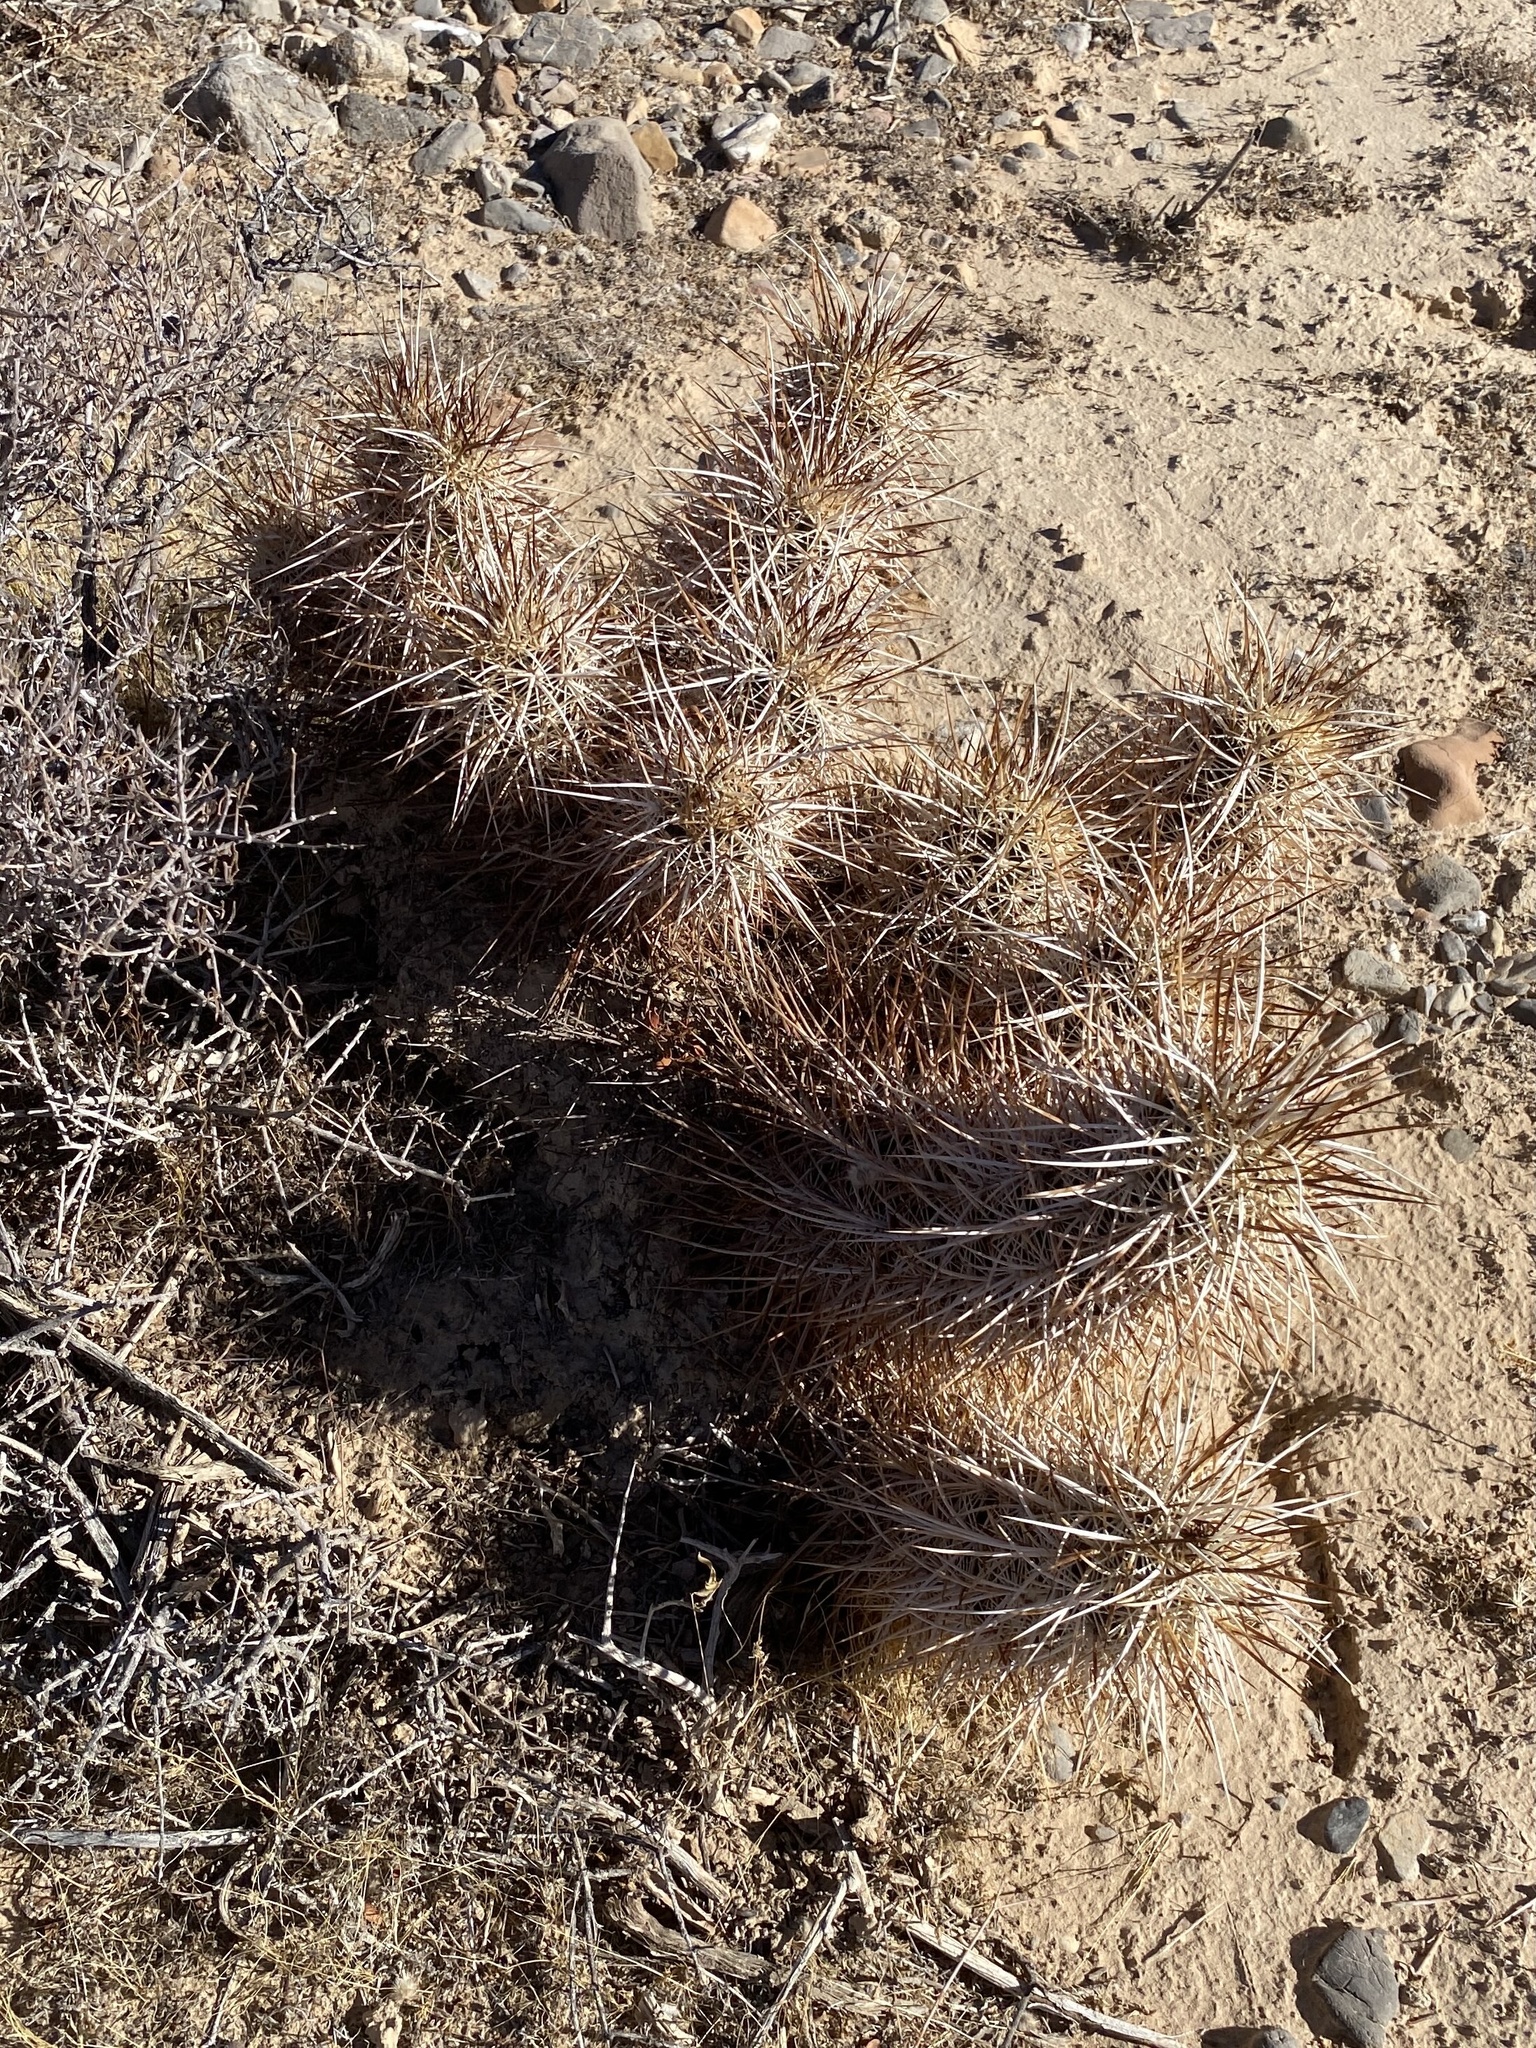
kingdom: Plantae
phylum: Tracheophyta
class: Magnoliopsida
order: Caryophyllales
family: Cactaceae
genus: Echinocereus
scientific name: Echinocereus engelmannii
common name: Engelmann's hedgehog cactus
